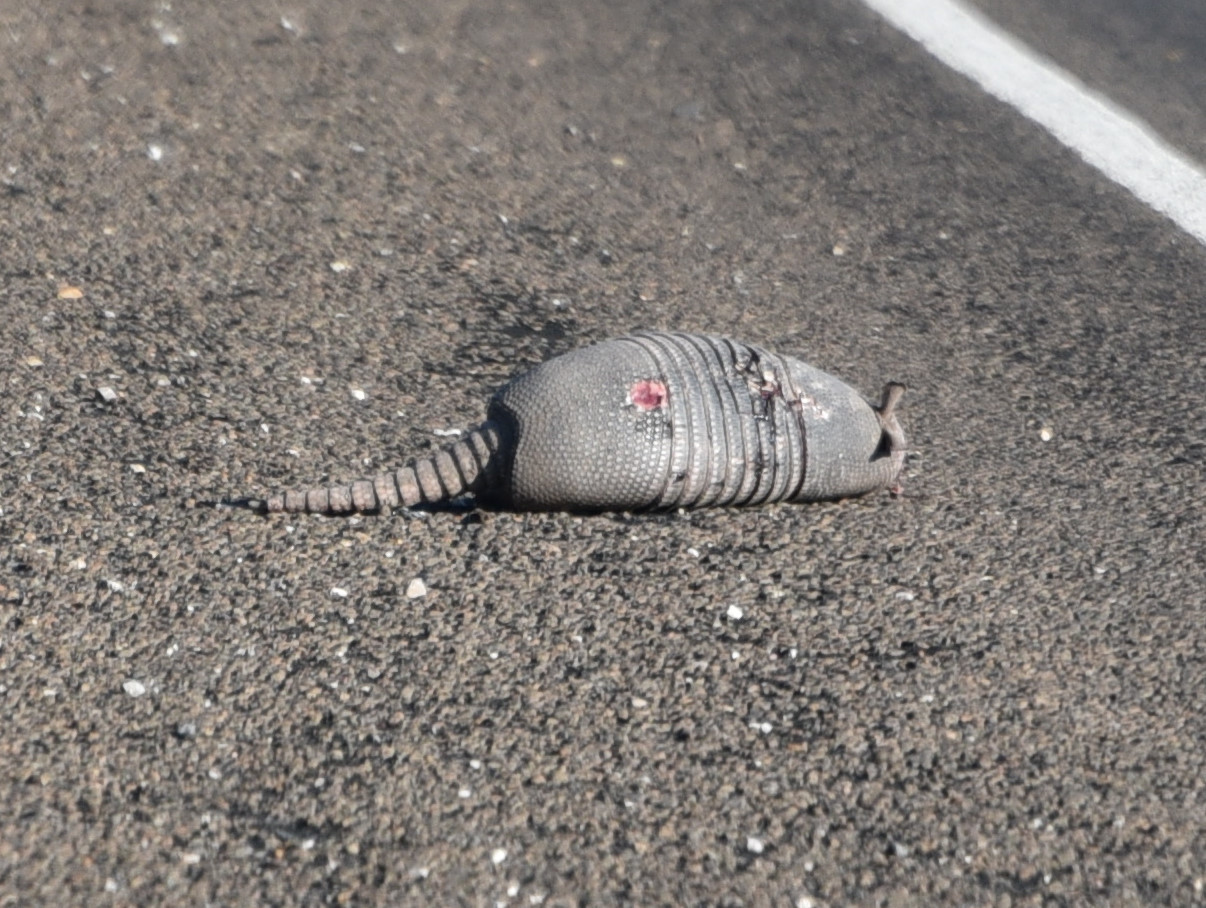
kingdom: Animalia
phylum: Chordata
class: Mammalia
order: Cingulata
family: Dasypodidae
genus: Dasypus
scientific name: Dasypus novemcinctus
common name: Nine-banded armadillo
